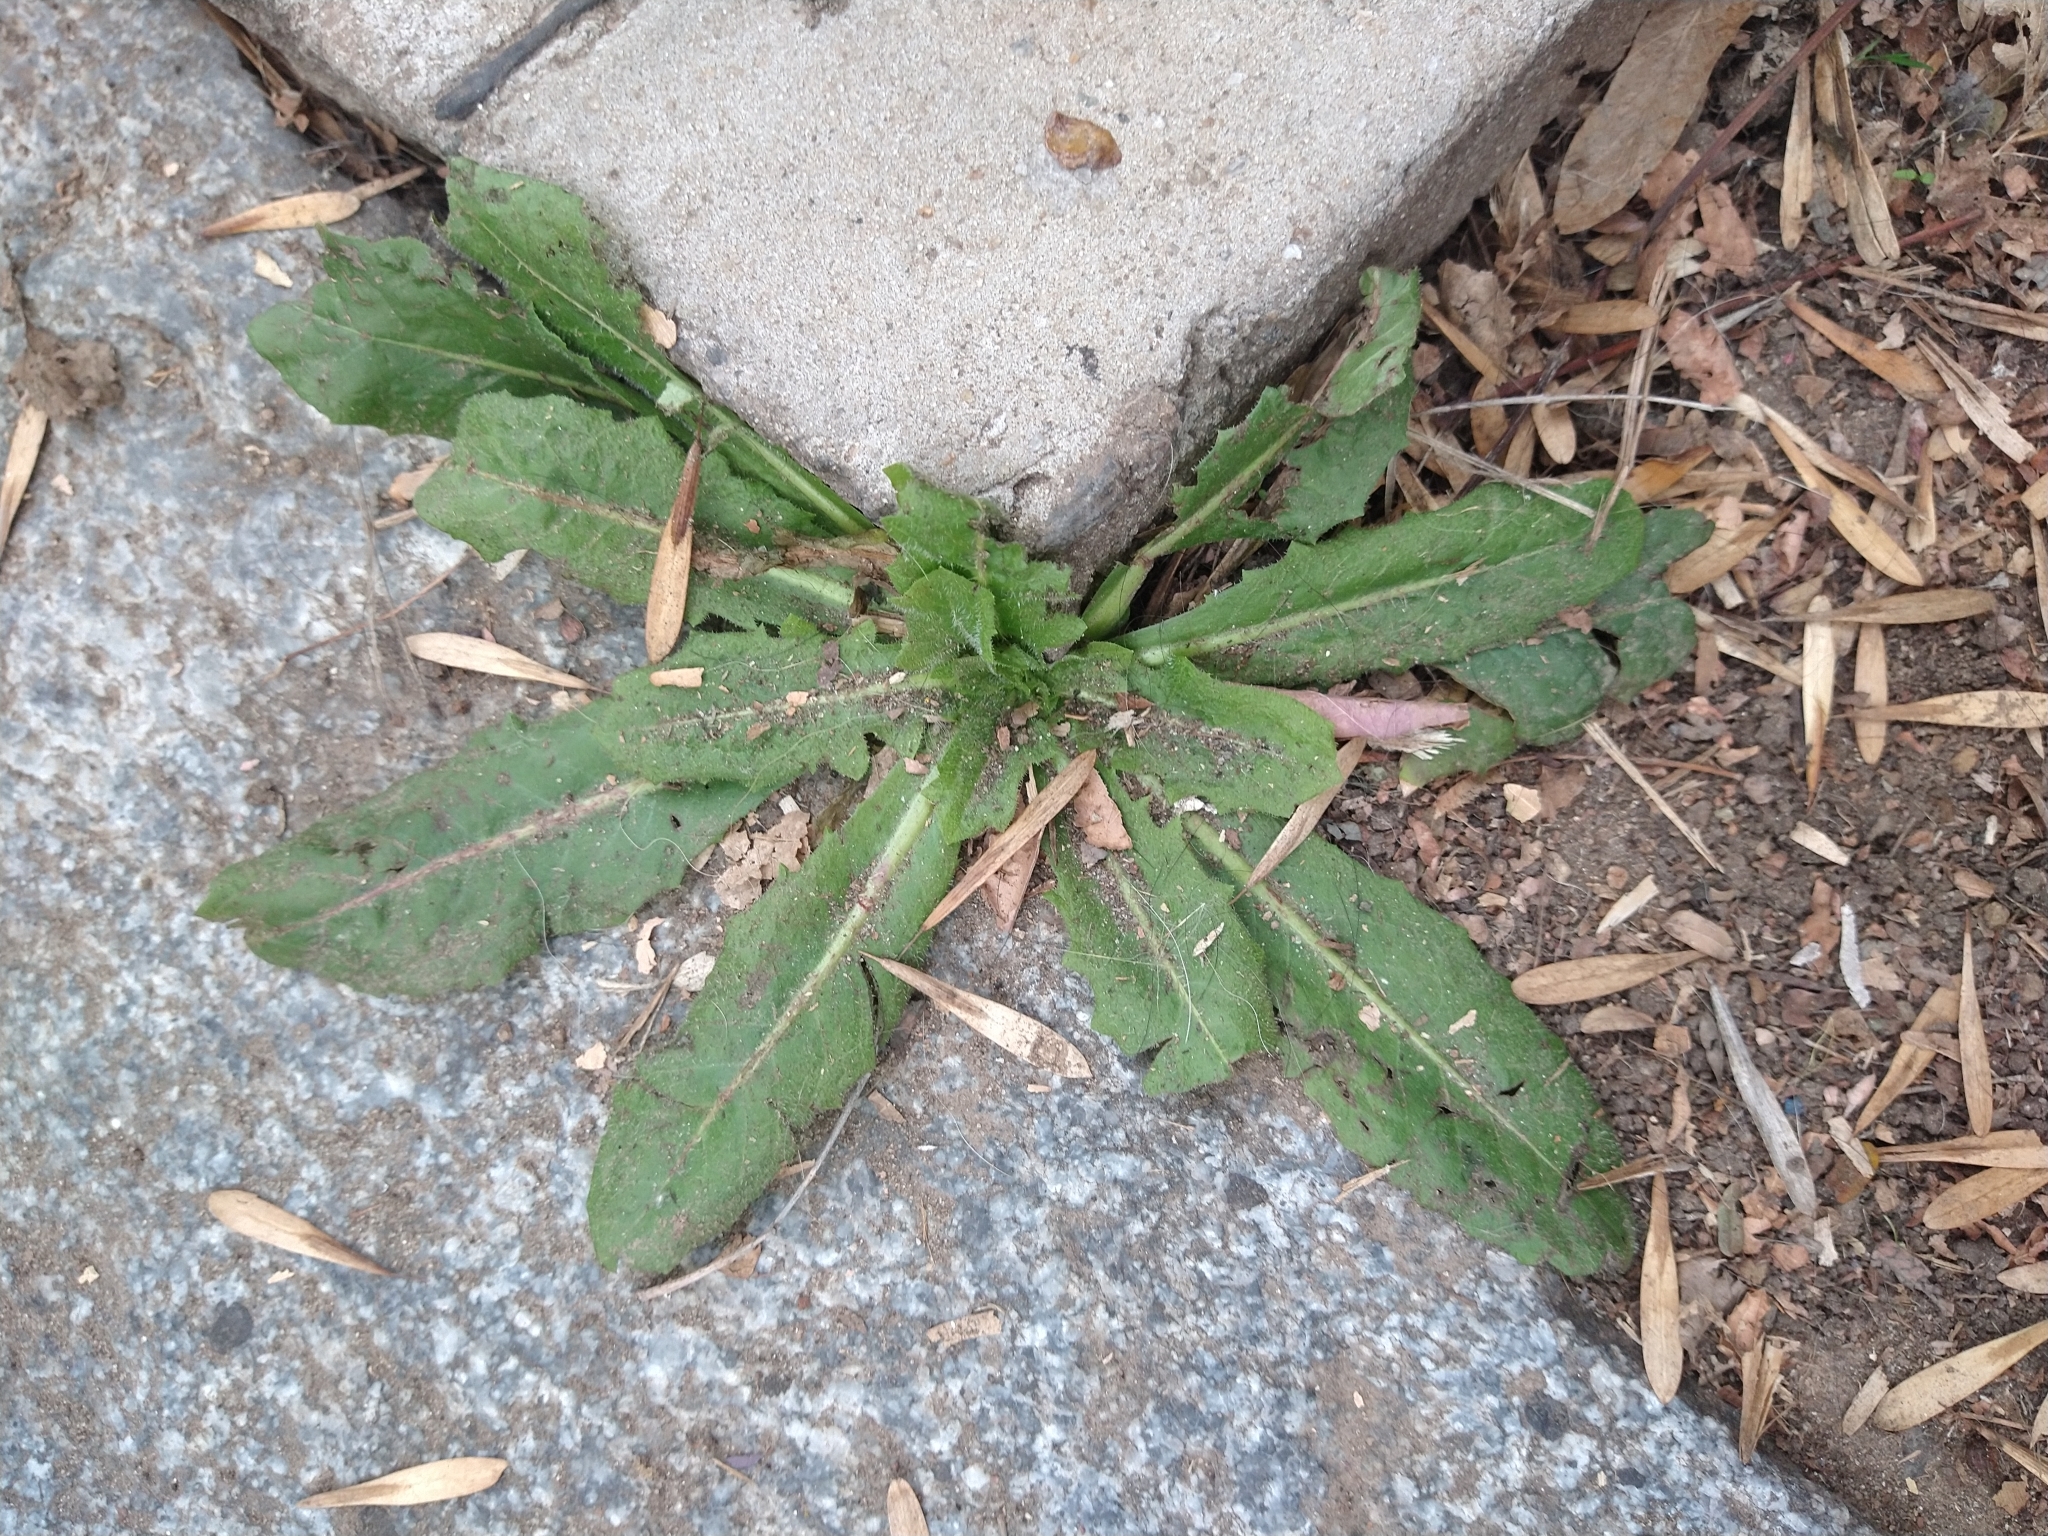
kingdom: Plantae
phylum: Tracheophyta
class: Magnoliopsida
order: Asterales
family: Asteraceae
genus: Cichorium
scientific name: Cichorium intybus
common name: Chicory
